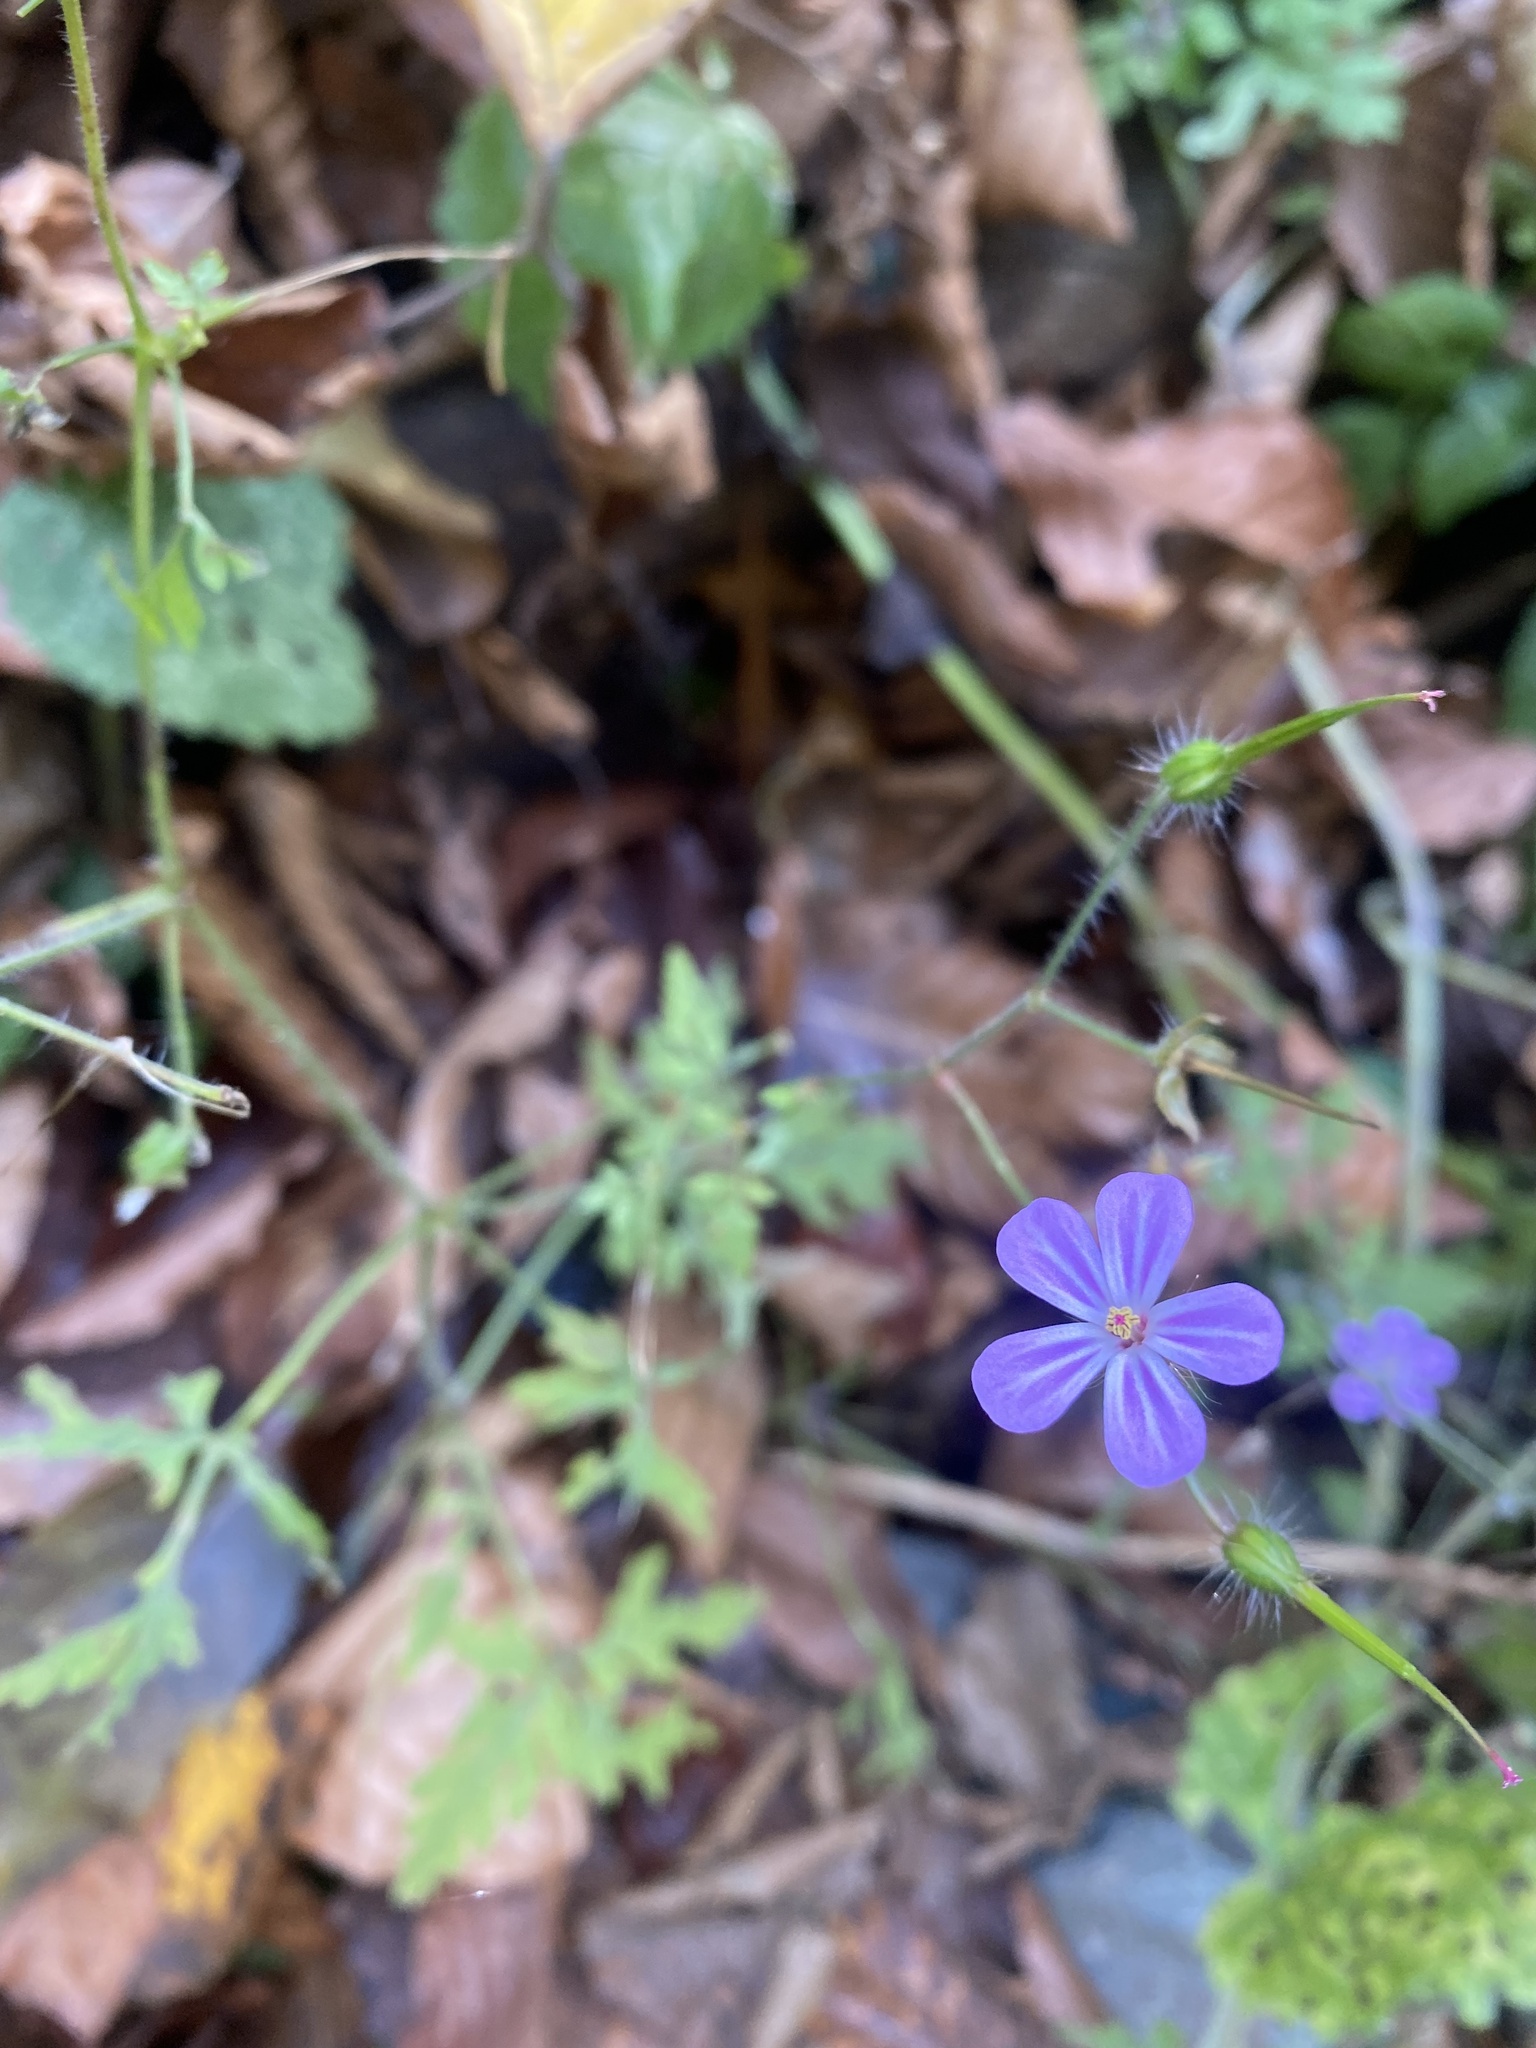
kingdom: Plantae
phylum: Tracheophyta
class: Magnoliopsida
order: Geraniales
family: Geraniaceae
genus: Geranium
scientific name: Geranium robertianum
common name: Herb-robert
